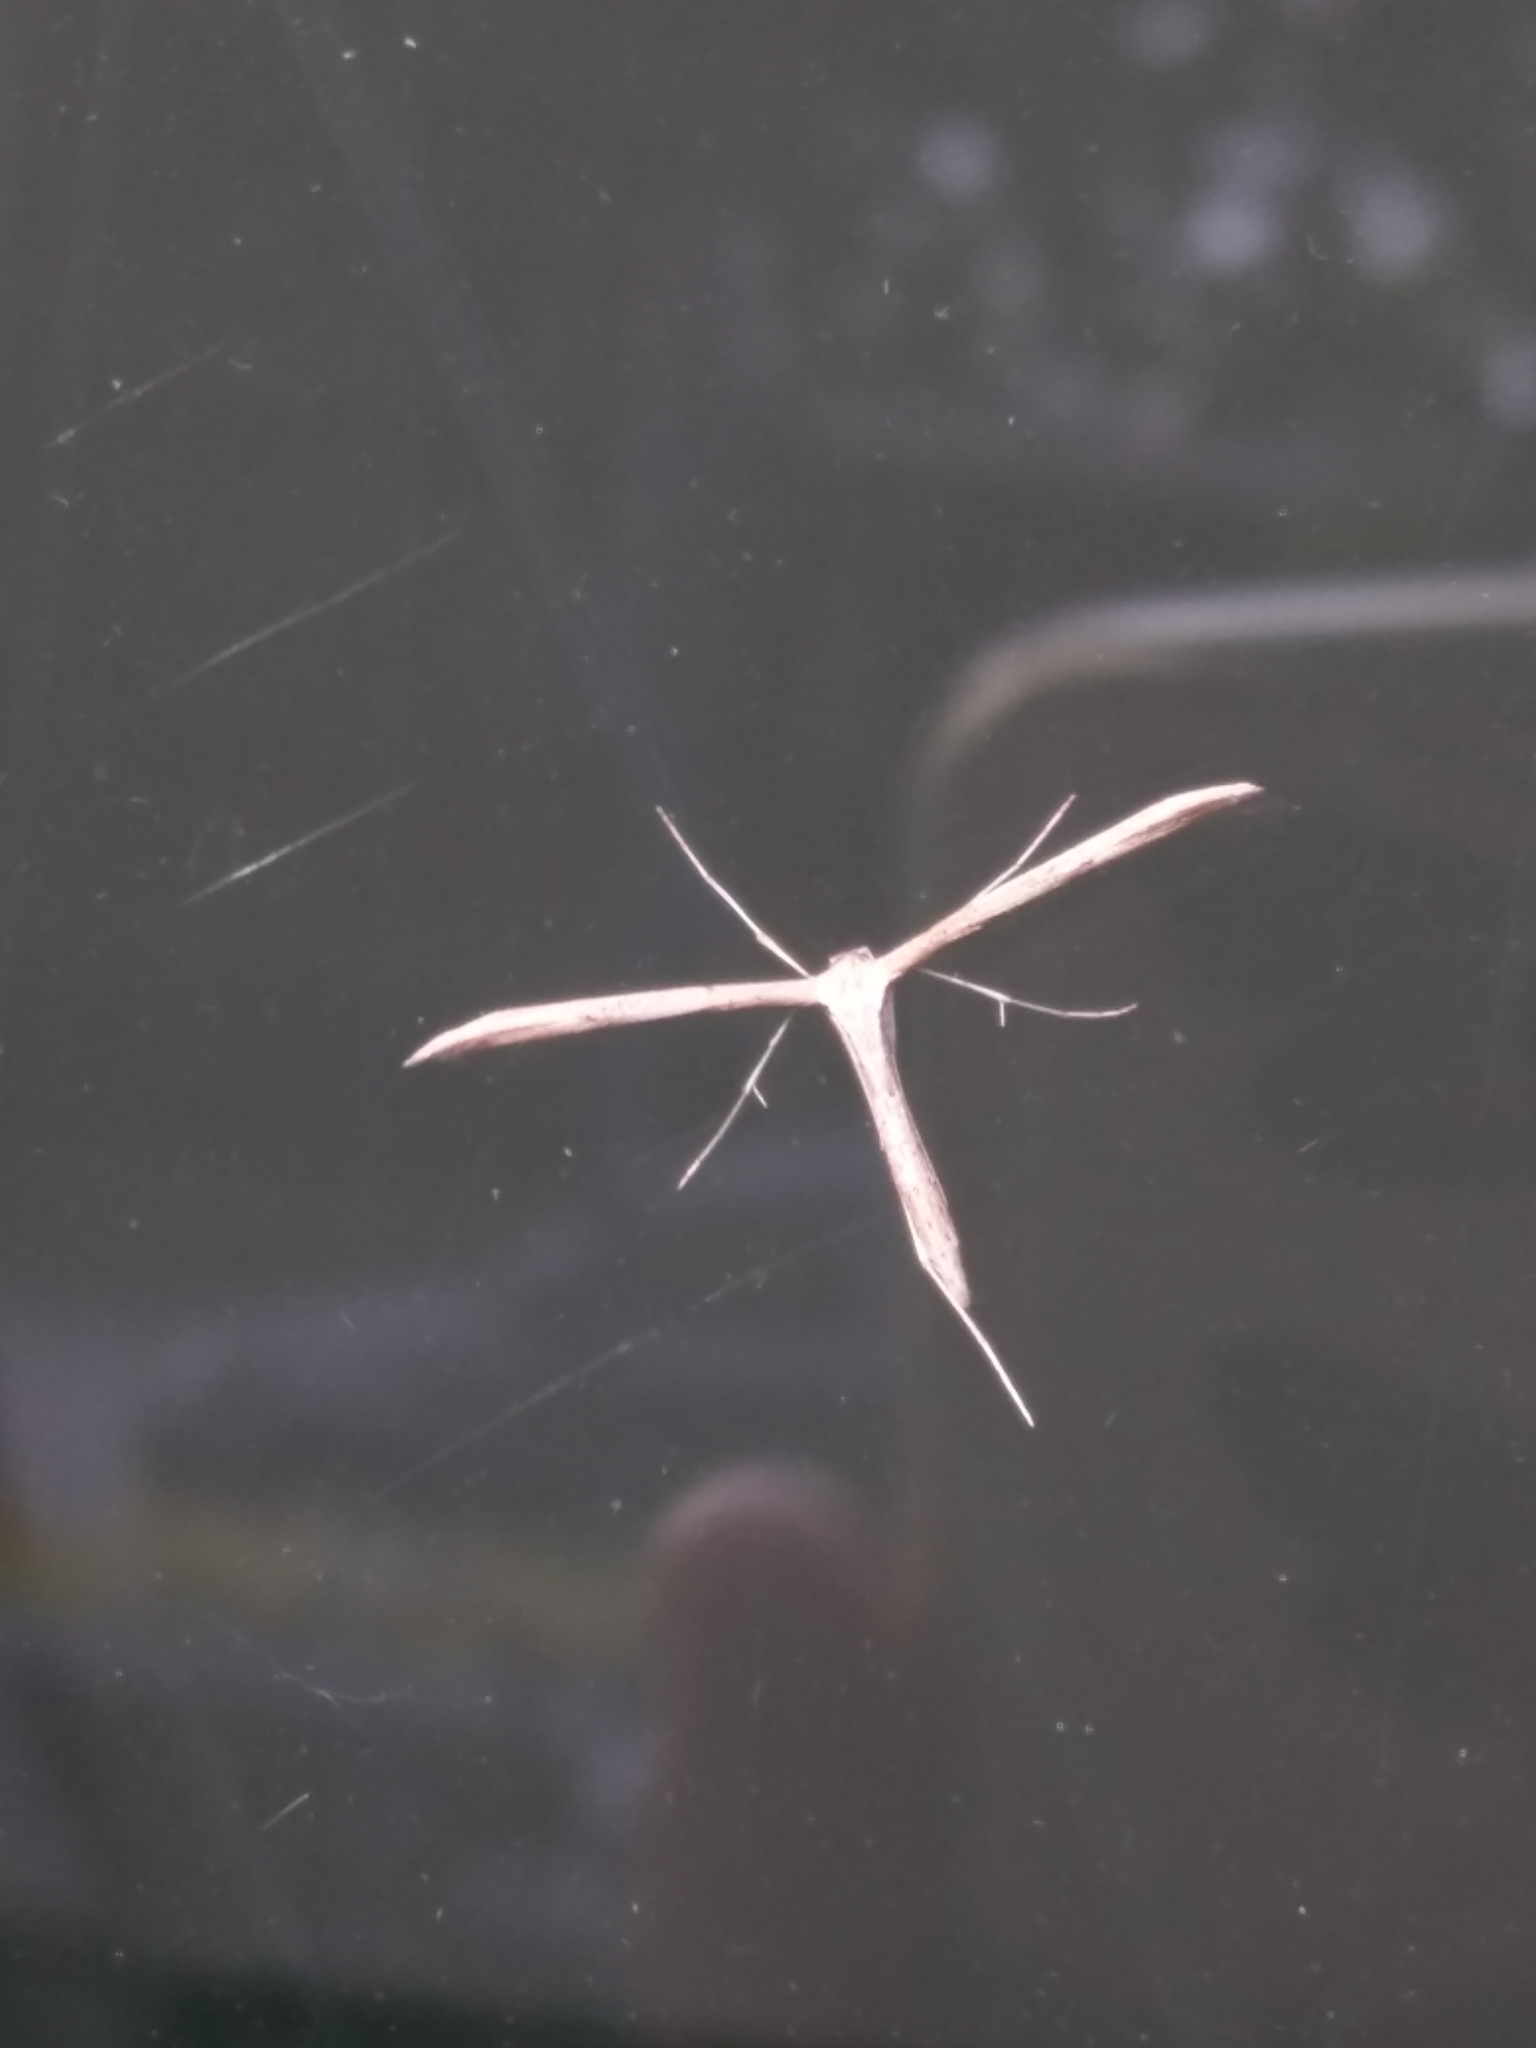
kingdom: Animalia
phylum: Arthropoda
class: Insecta
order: Lepidoptera
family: Pterophoridae
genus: Emmelina
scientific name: Emmelina monodactyla
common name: Common plume
